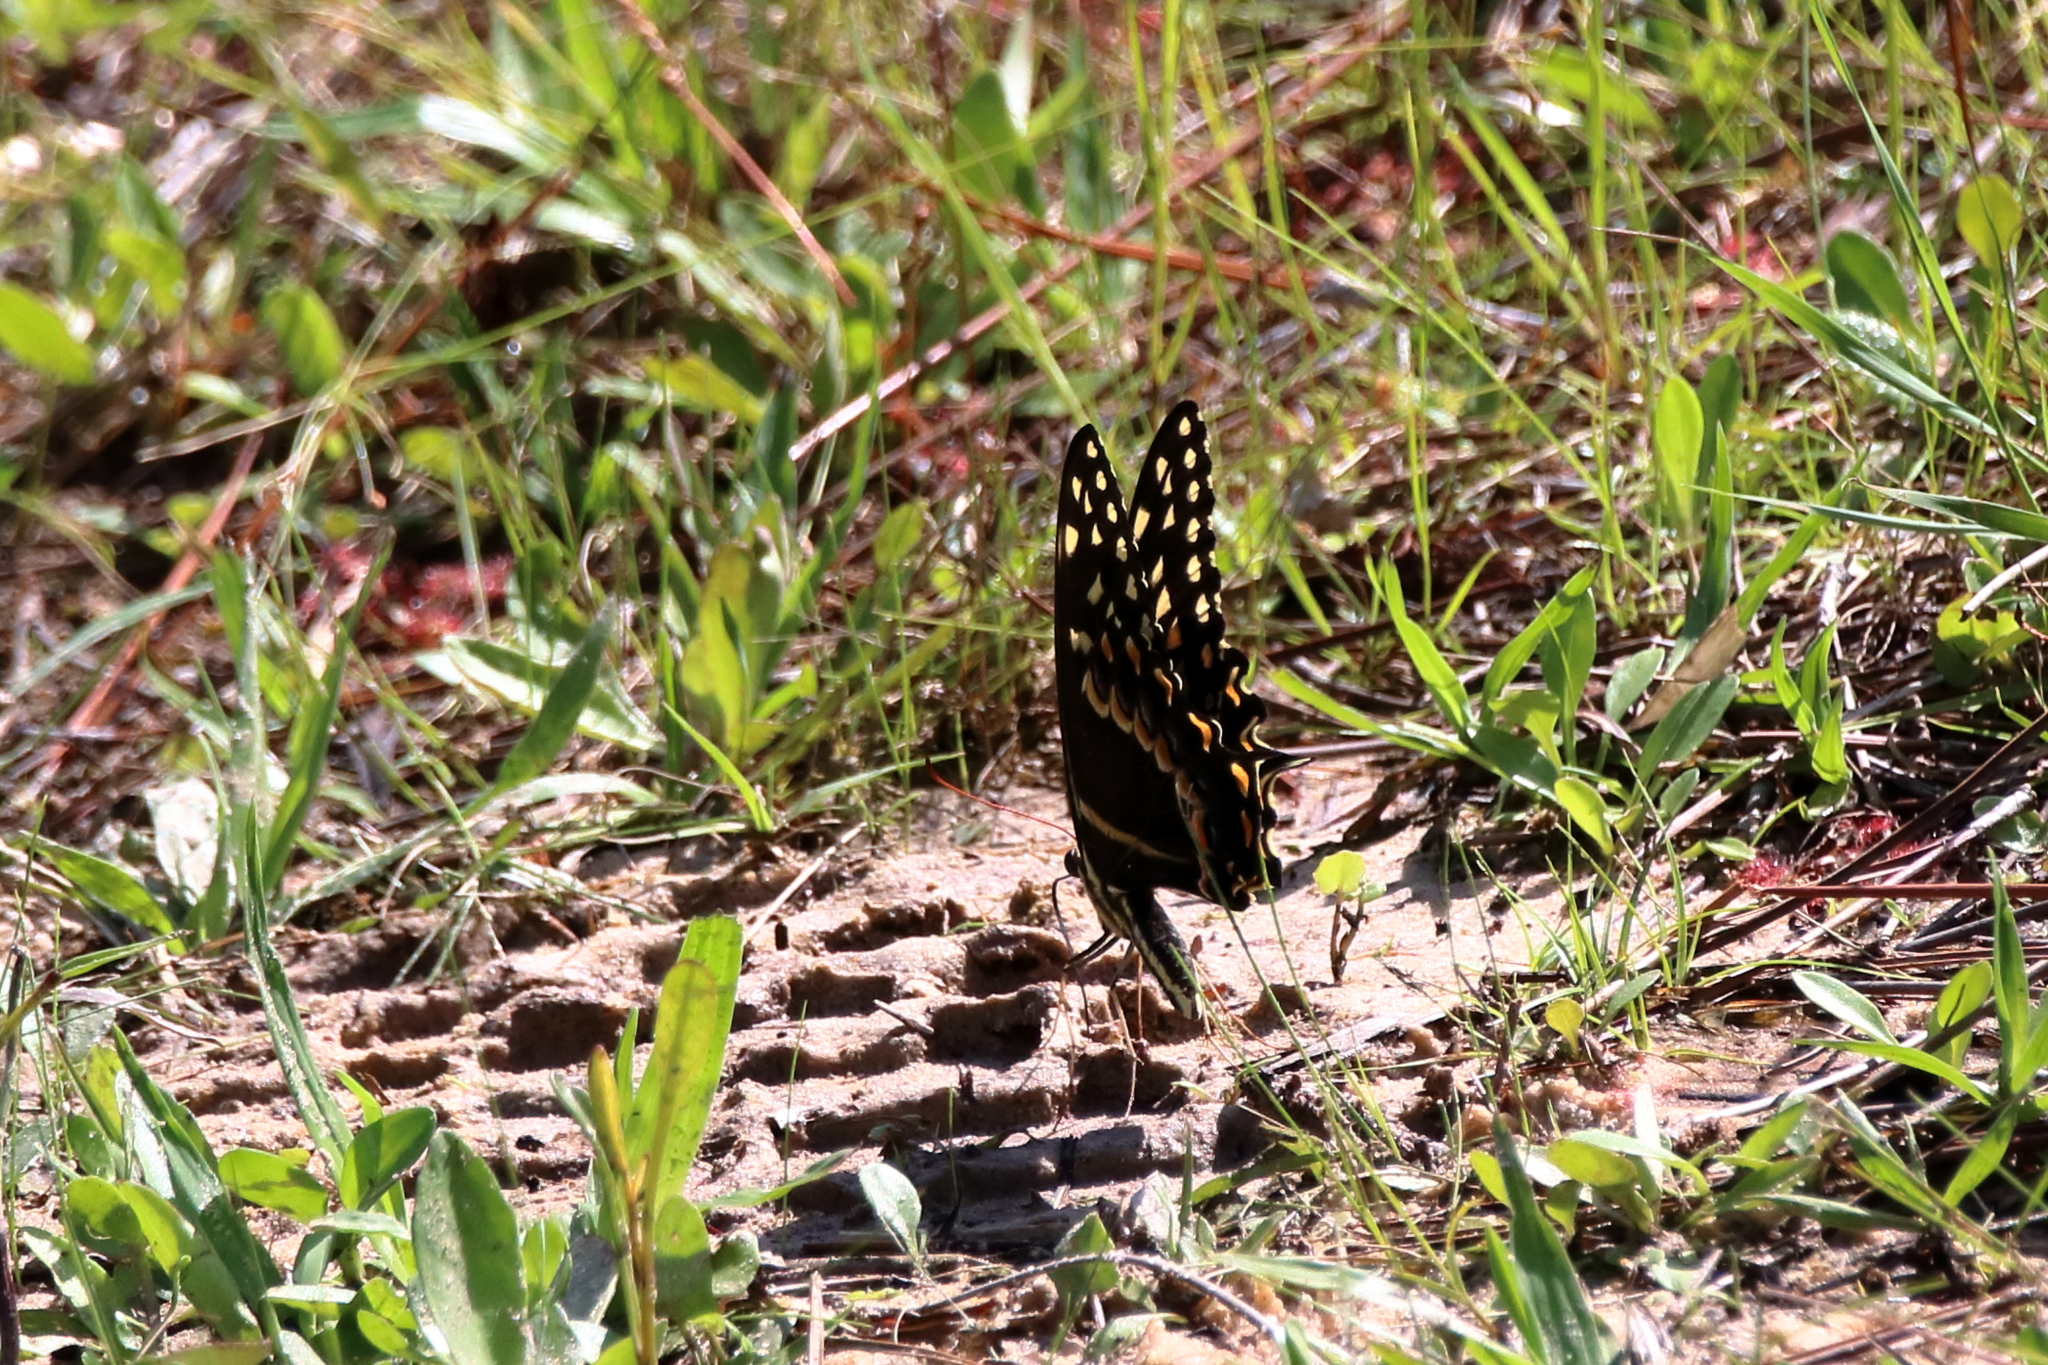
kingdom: Animalia
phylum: Arthropoda
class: Insecta
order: Lepidoptera
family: Papilionidae
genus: Papilio
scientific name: Papilio palamedes
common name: Palamedes swallowtail
